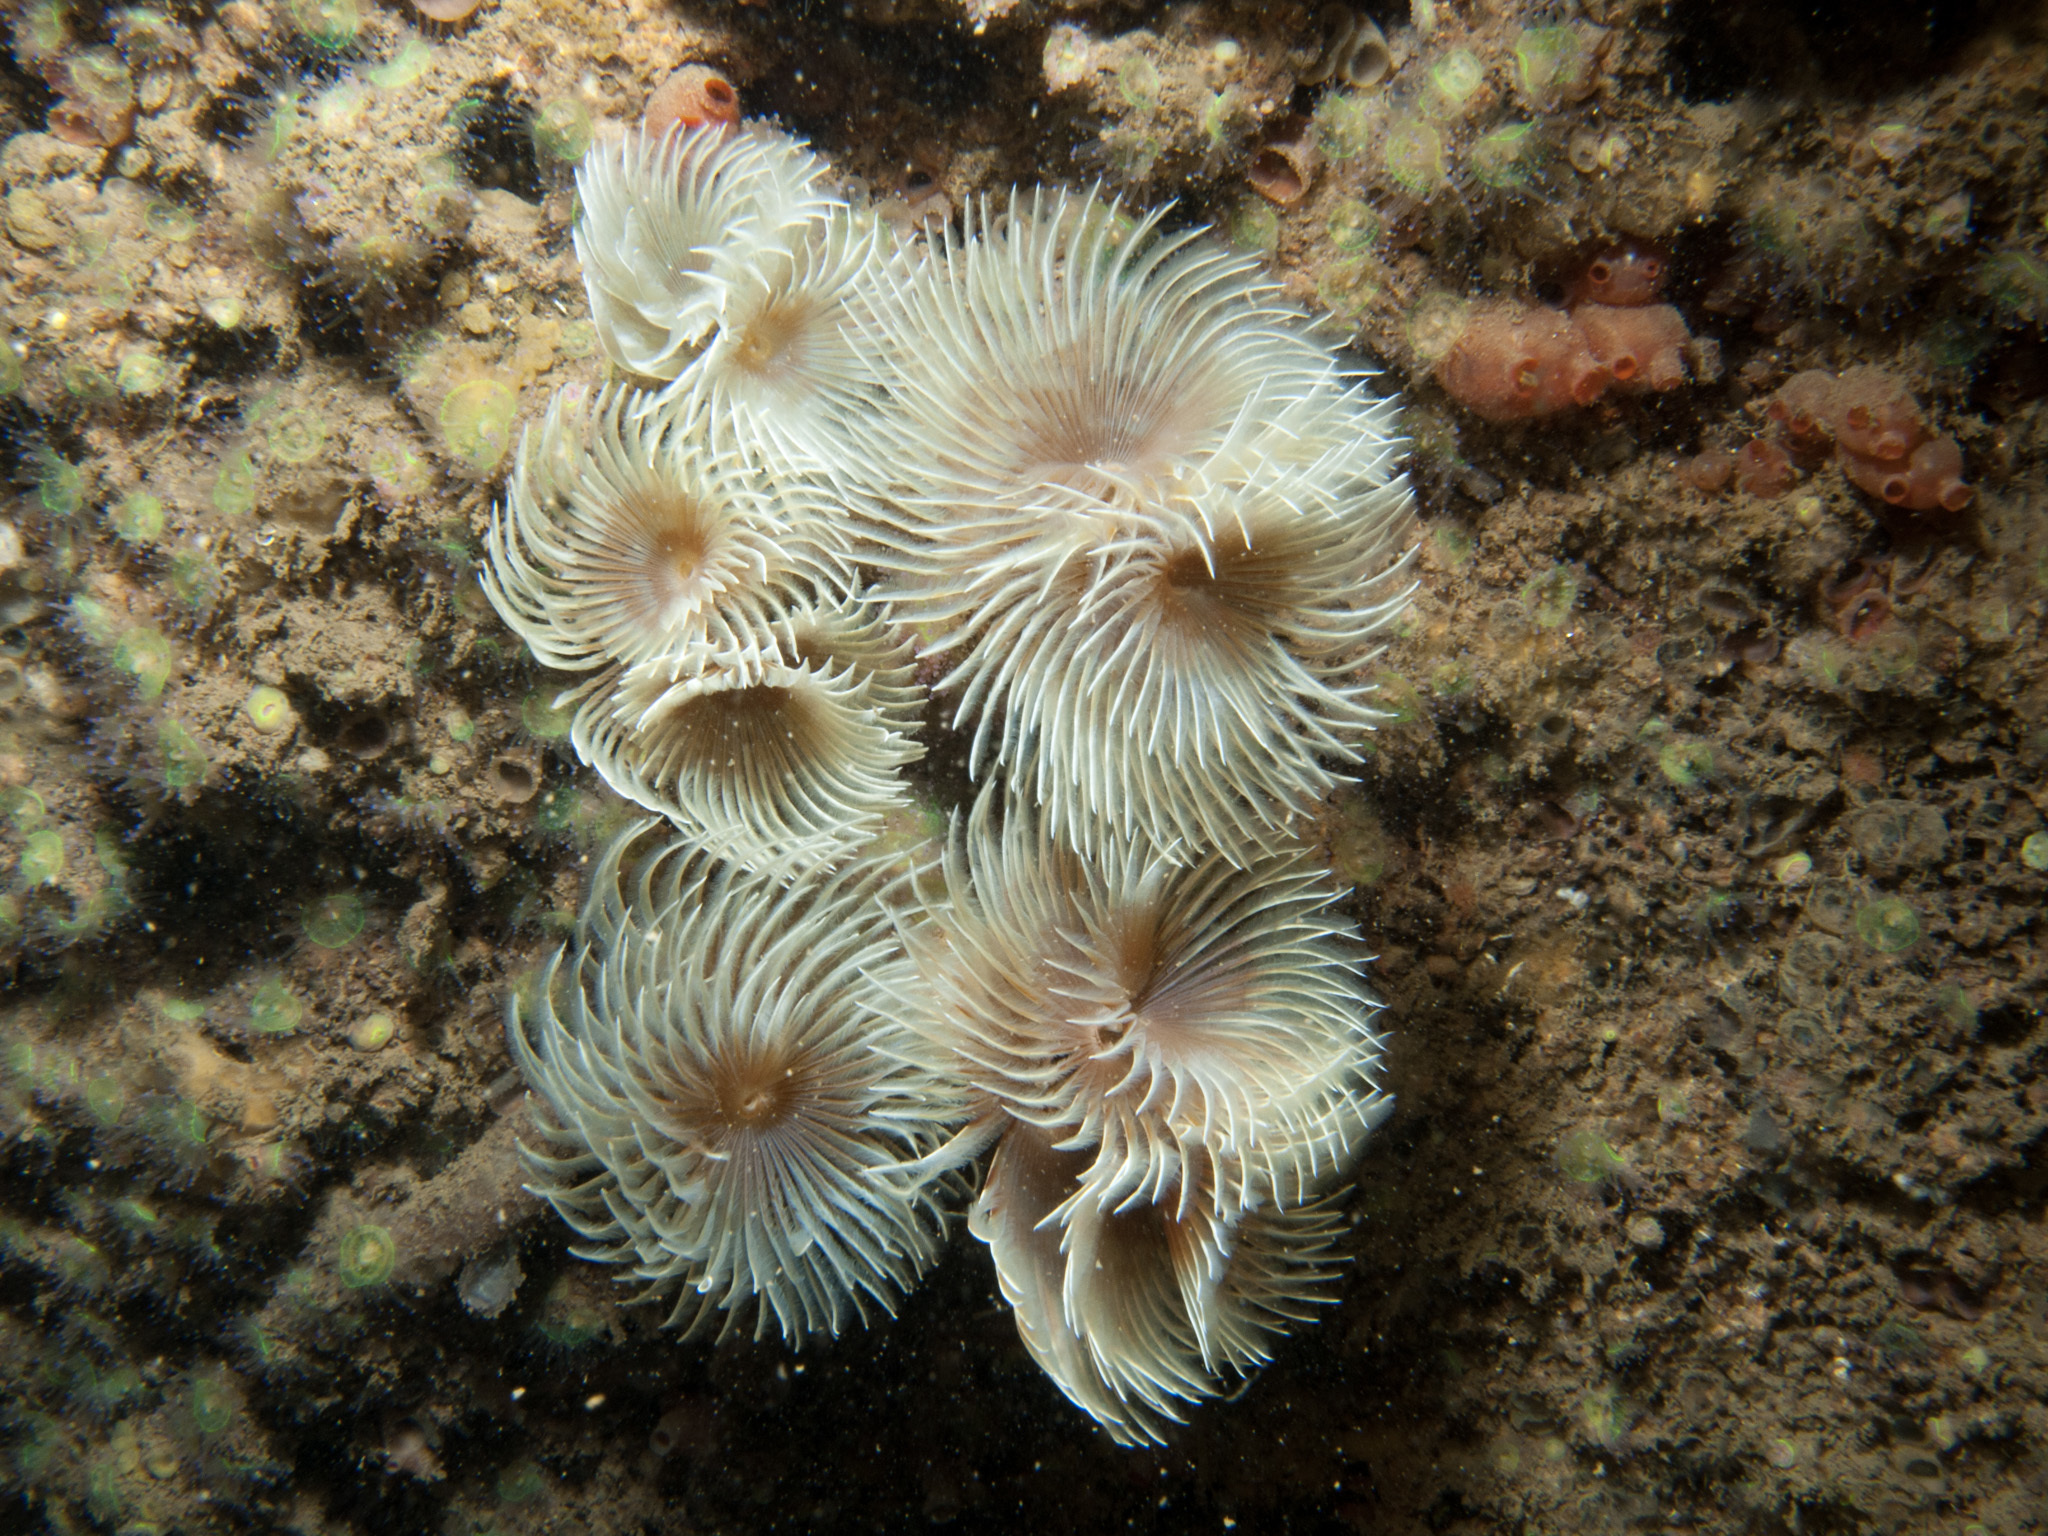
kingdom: Animalia
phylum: Annelida
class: Polychaeta
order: Sabellida
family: Sabellidae
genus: Bispira
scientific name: Bispira volutacornis
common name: Twin fan worm
